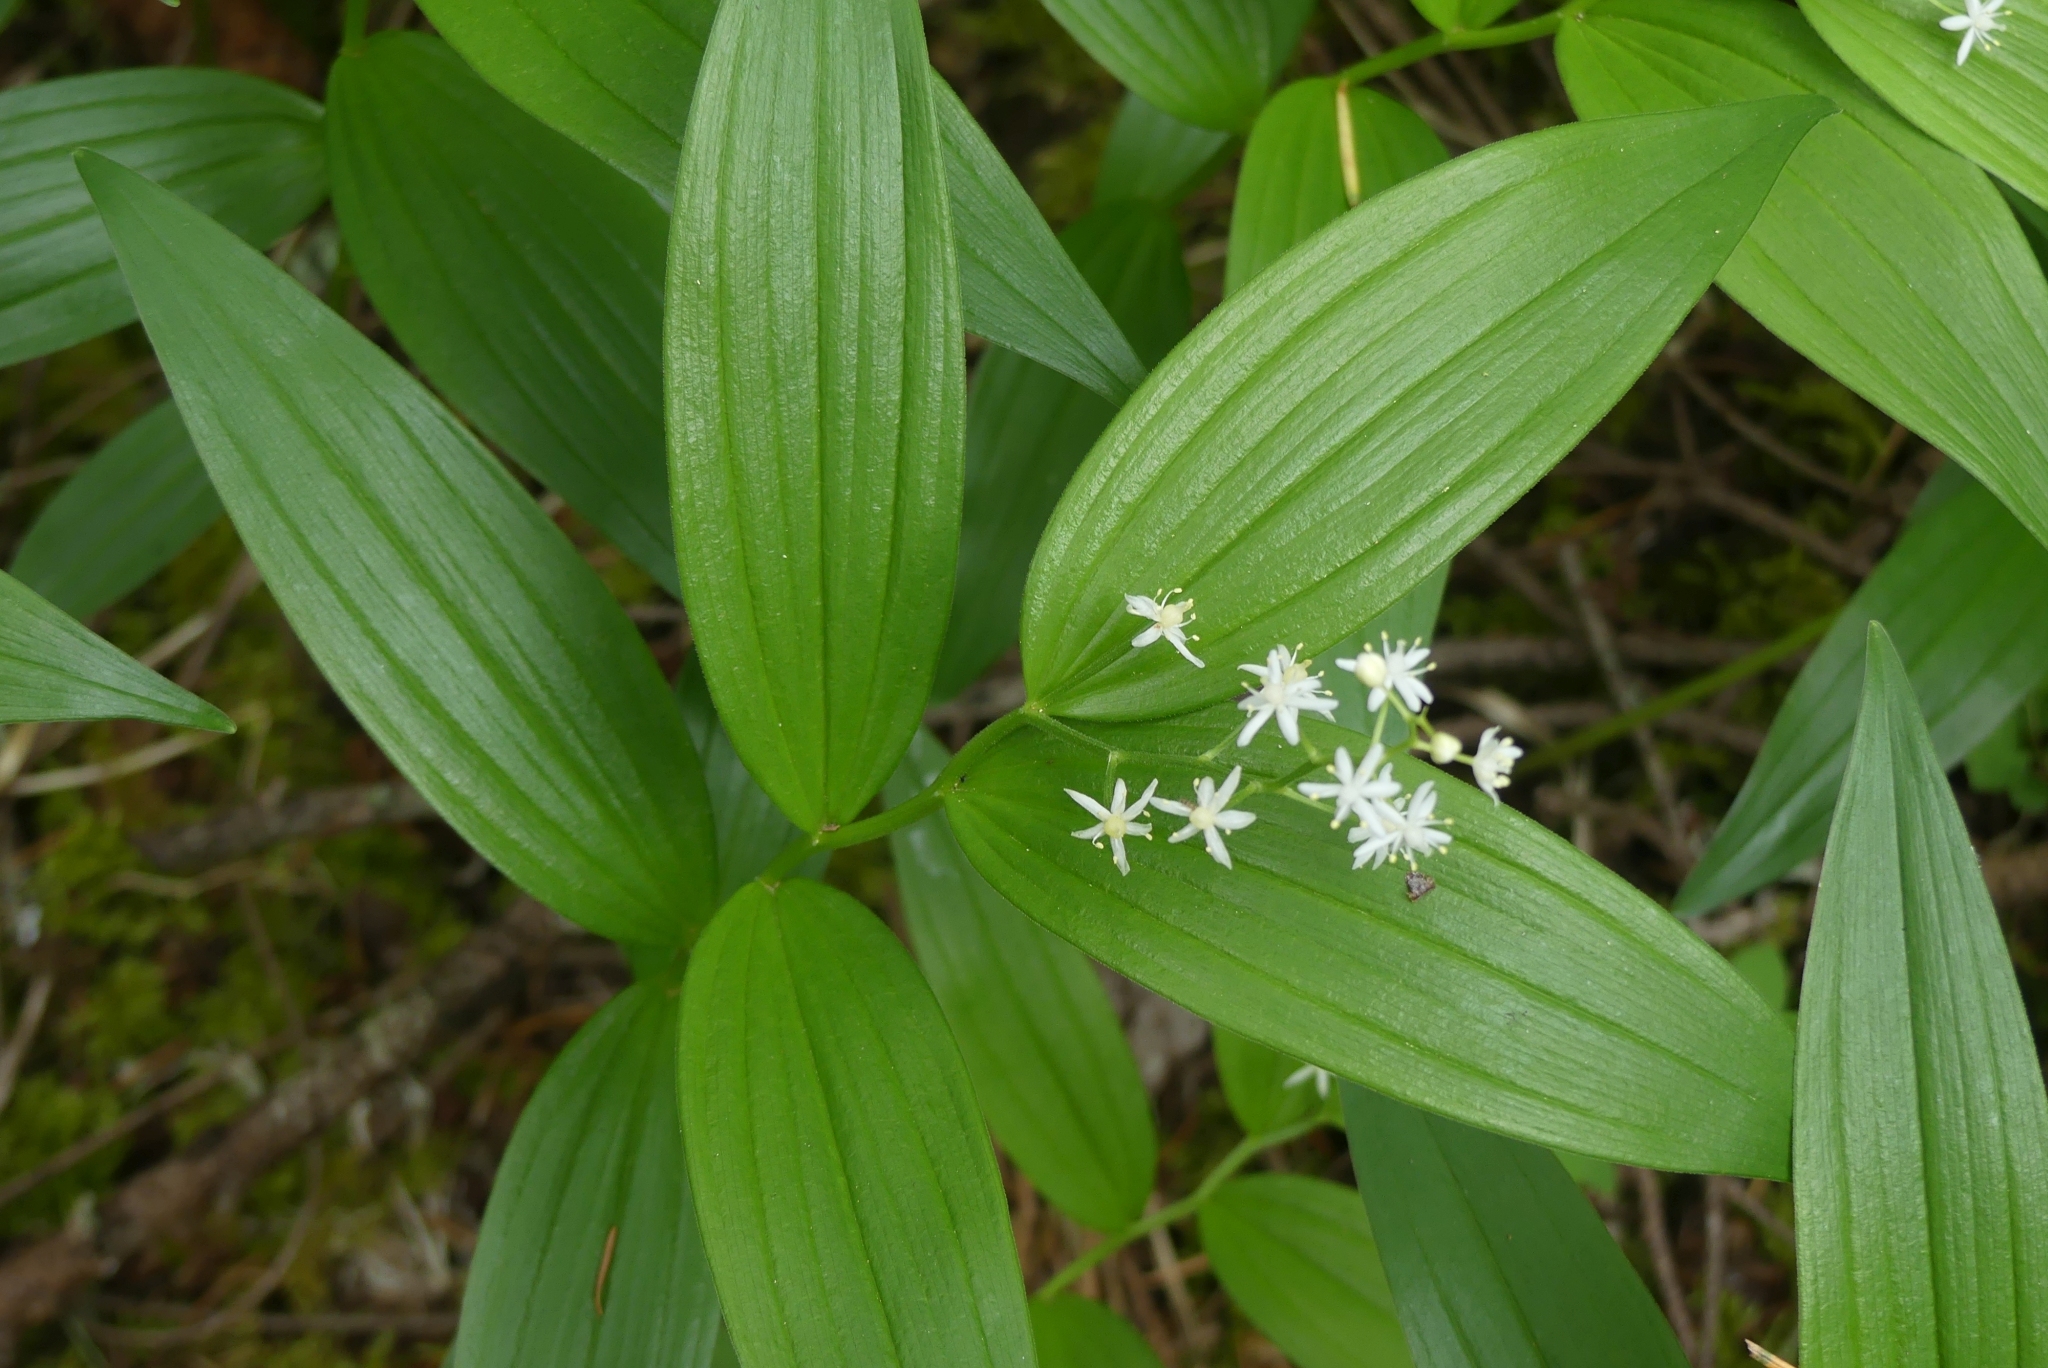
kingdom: Plantae
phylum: Tracheophyta
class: Liliopsida
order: Asparagales
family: Asparagaceae
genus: Maianthemum
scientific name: Maianthemum stellatum
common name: Little false solomon's seal
